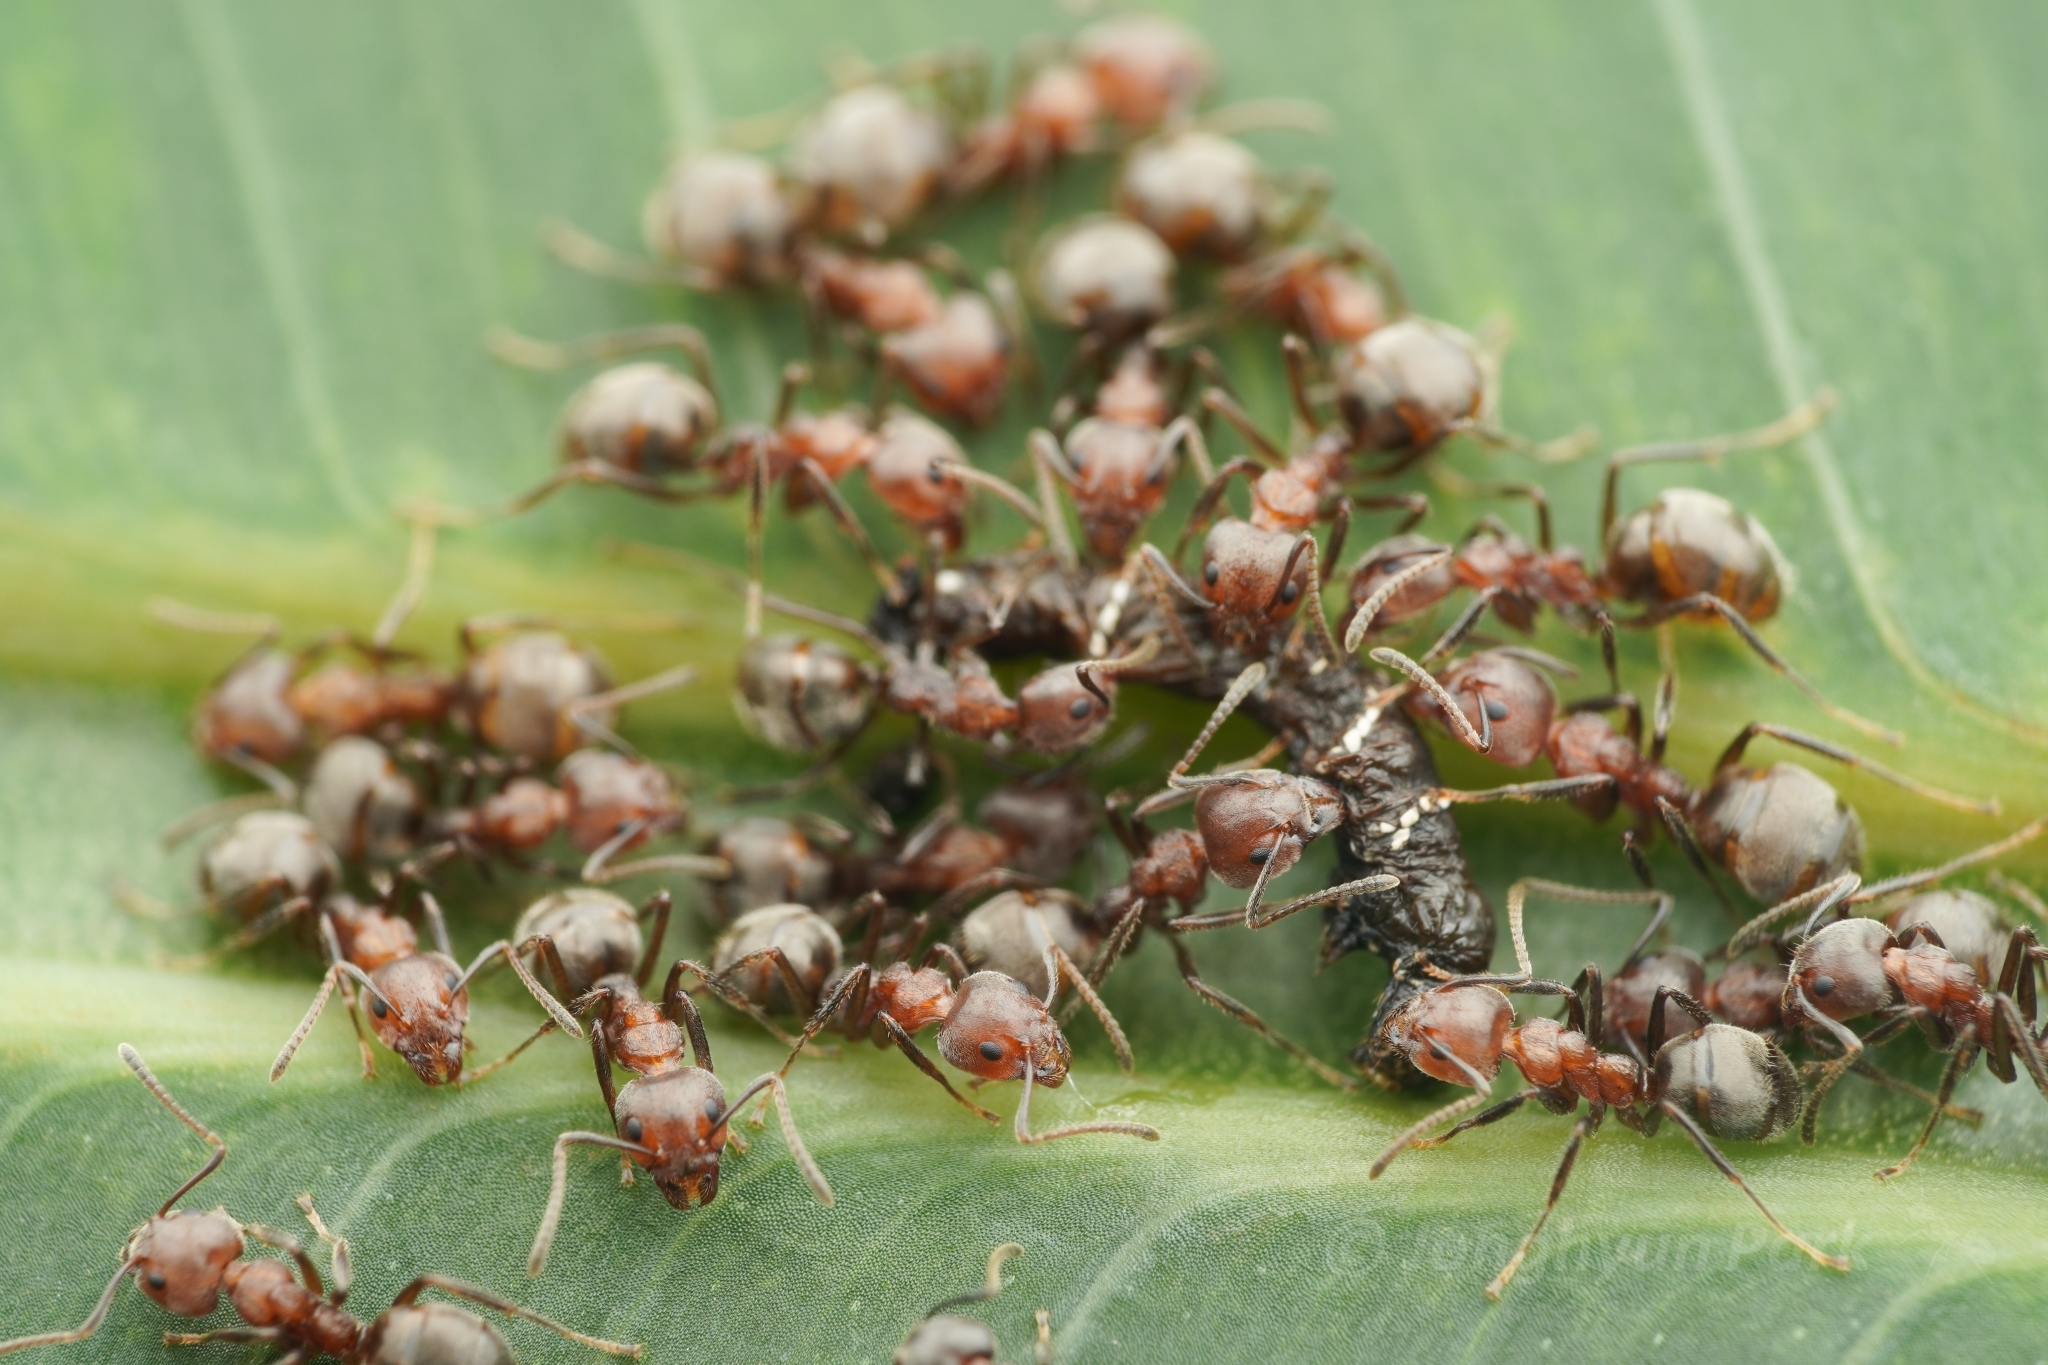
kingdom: Animalia
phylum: Arthropoda
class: Insecta
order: Hymenoptera
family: Formicidae
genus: Dolichoderus
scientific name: Dolichoderus thoracicus
